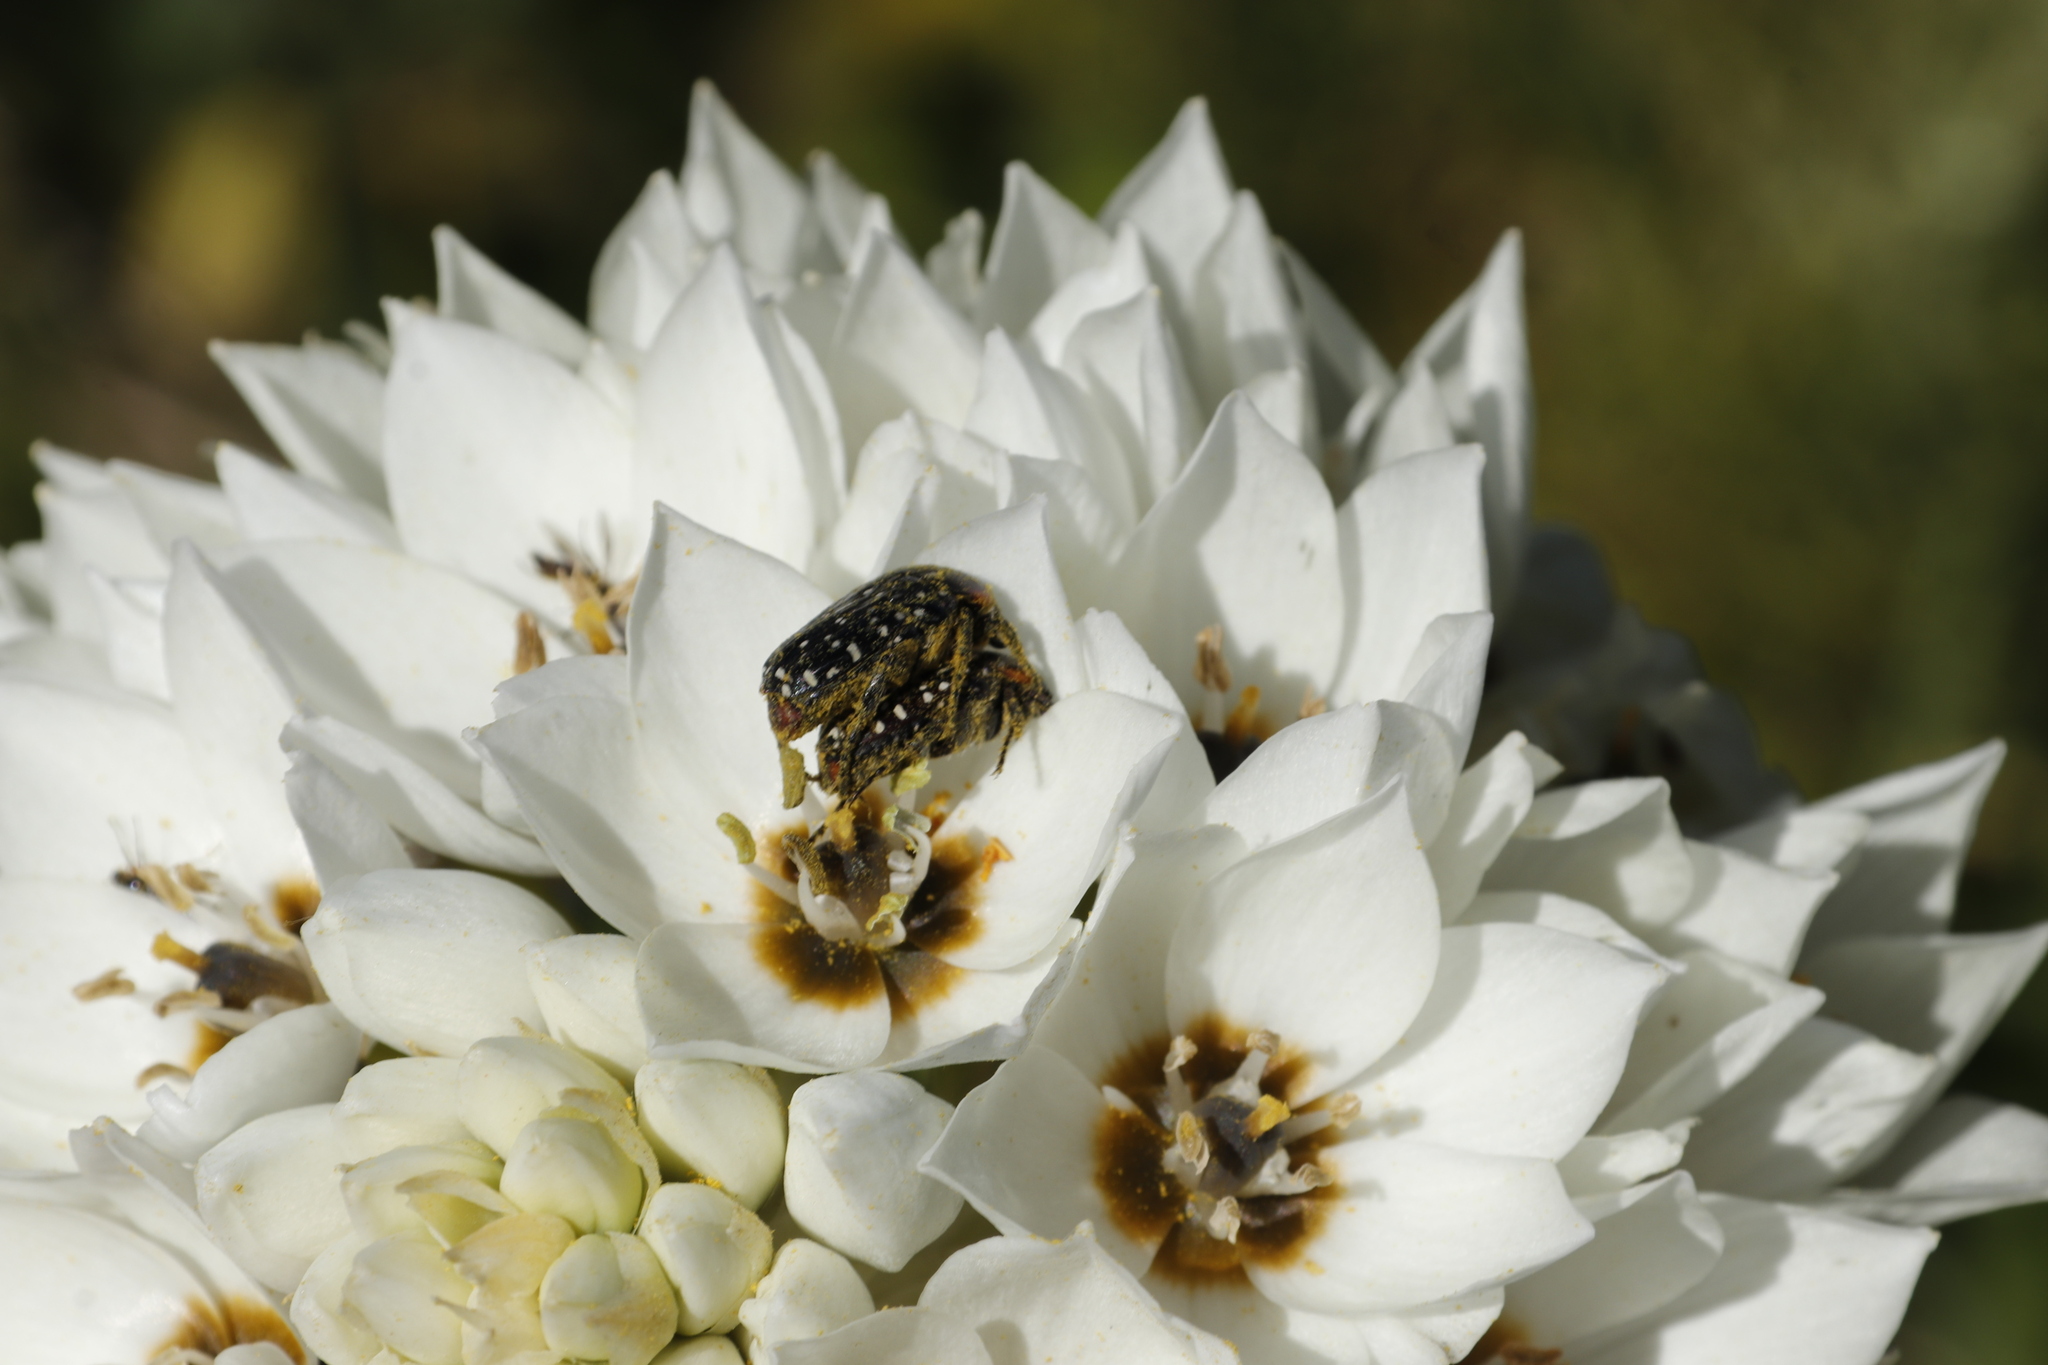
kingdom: Animalia
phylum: Arthropoda
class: Insecta
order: Coleoptera
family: Scarabaeidae
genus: Oxythyrea
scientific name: Oxythyrea
